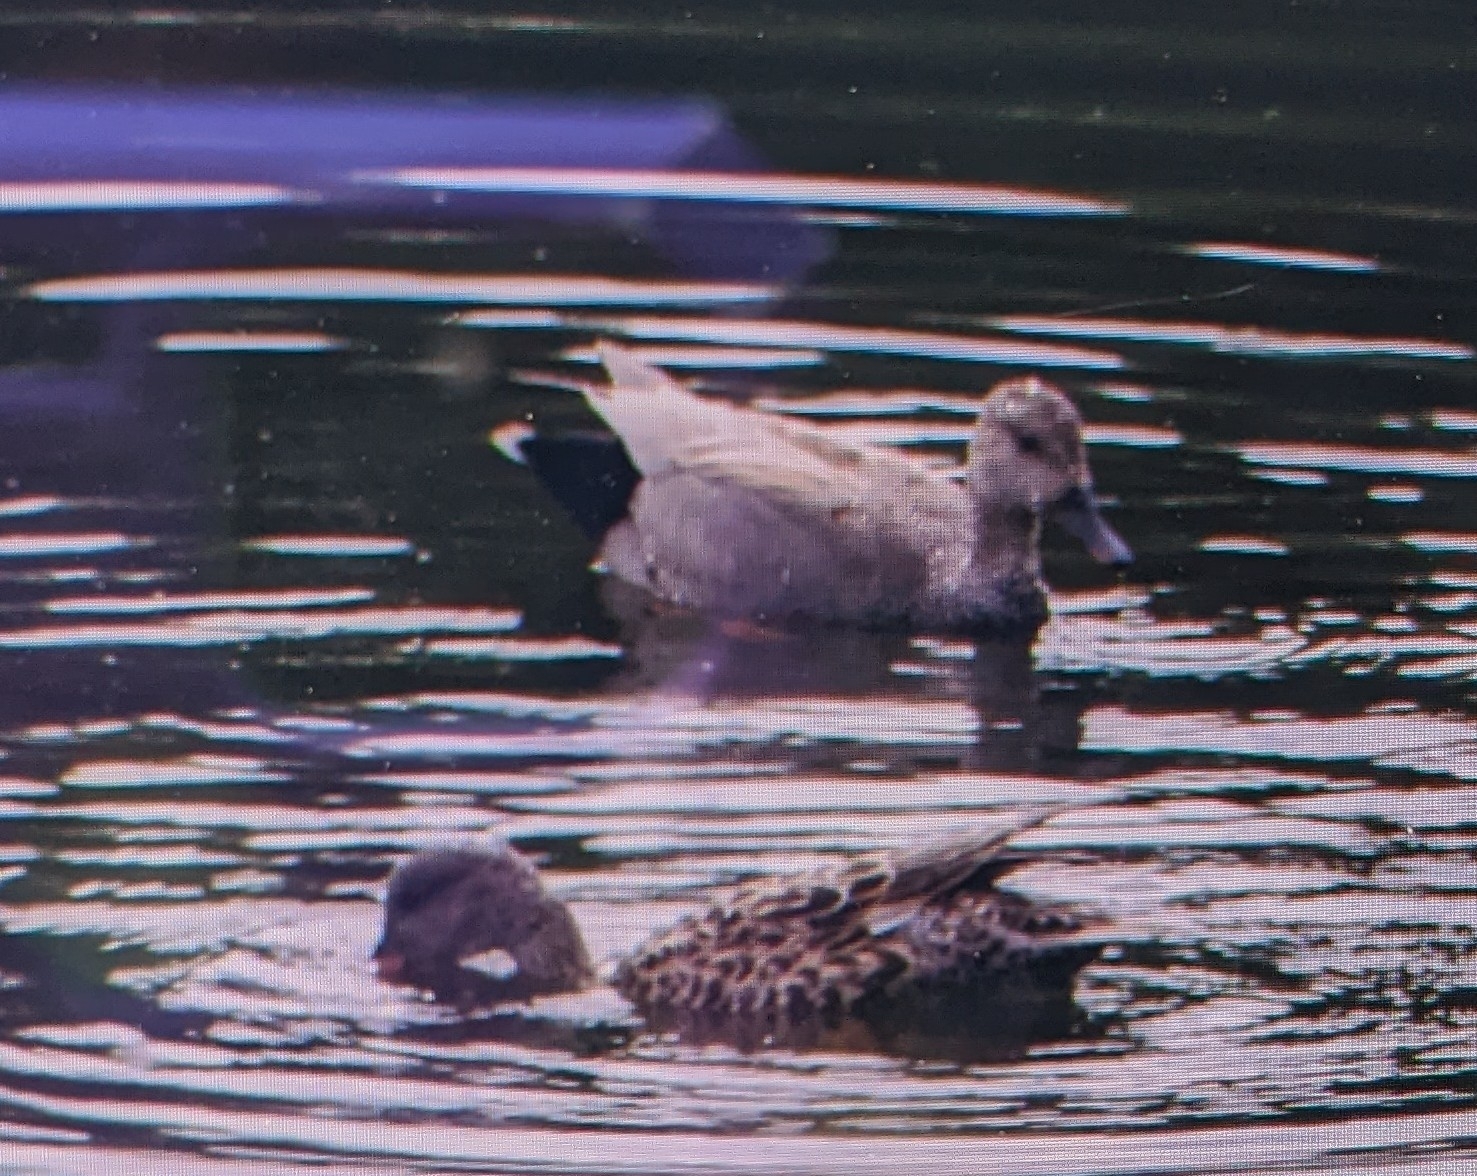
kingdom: Animalia
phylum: Chordata
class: Aves
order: Anseriformes
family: Anatidae
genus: Mareca
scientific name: Mareca strepera
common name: Gadwall
